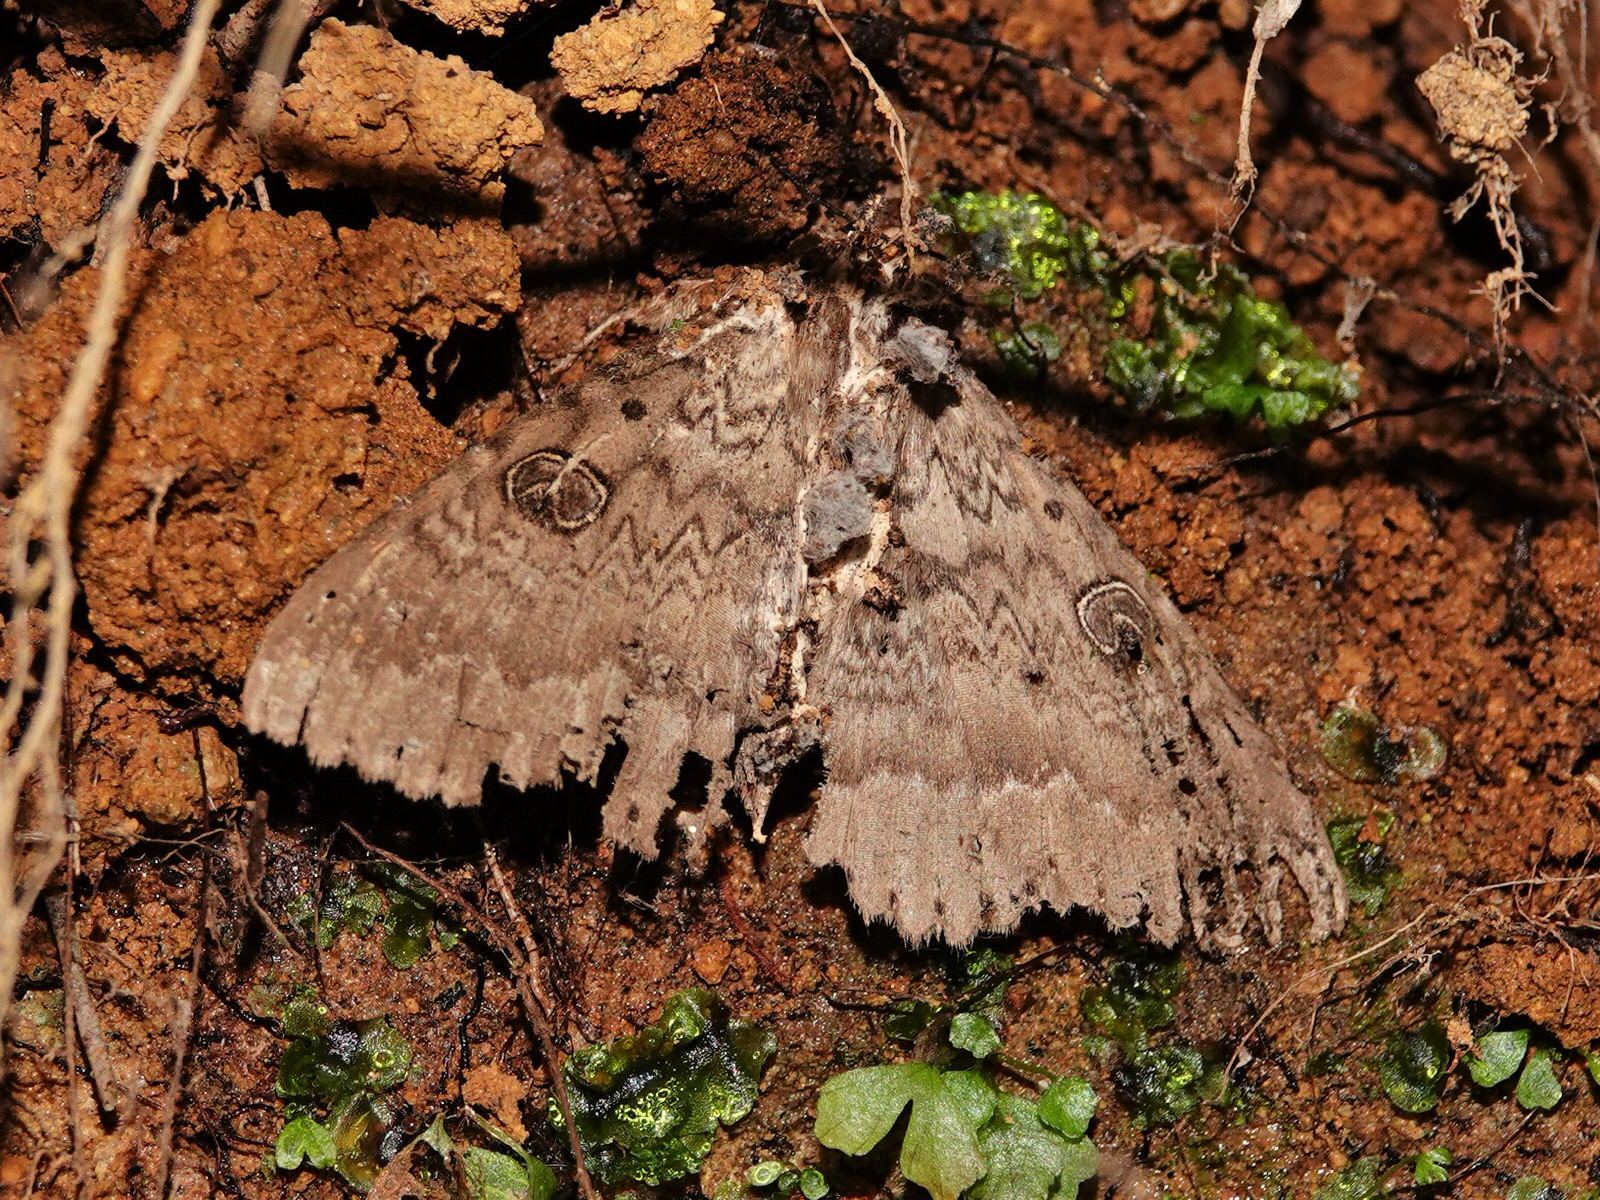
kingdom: Animalia
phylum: Arthropoda
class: Insecta
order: Lepidoptera
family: Erebidae
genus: Dasypodia
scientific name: Dasypodia cymatodes
